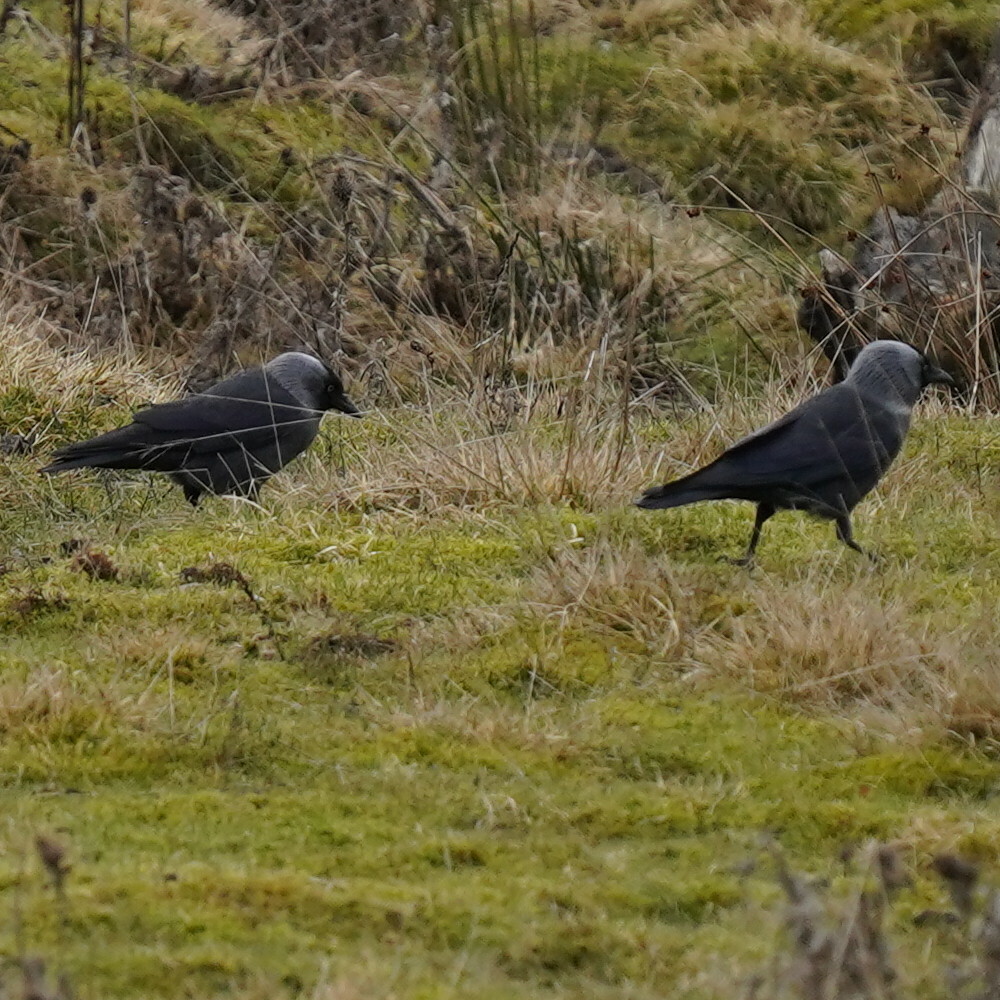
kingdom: Animalia
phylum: Chordata
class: Aves
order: Passeriformes
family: Corvidae
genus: Corvus
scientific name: Corvus cornix
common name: Hooded crow
